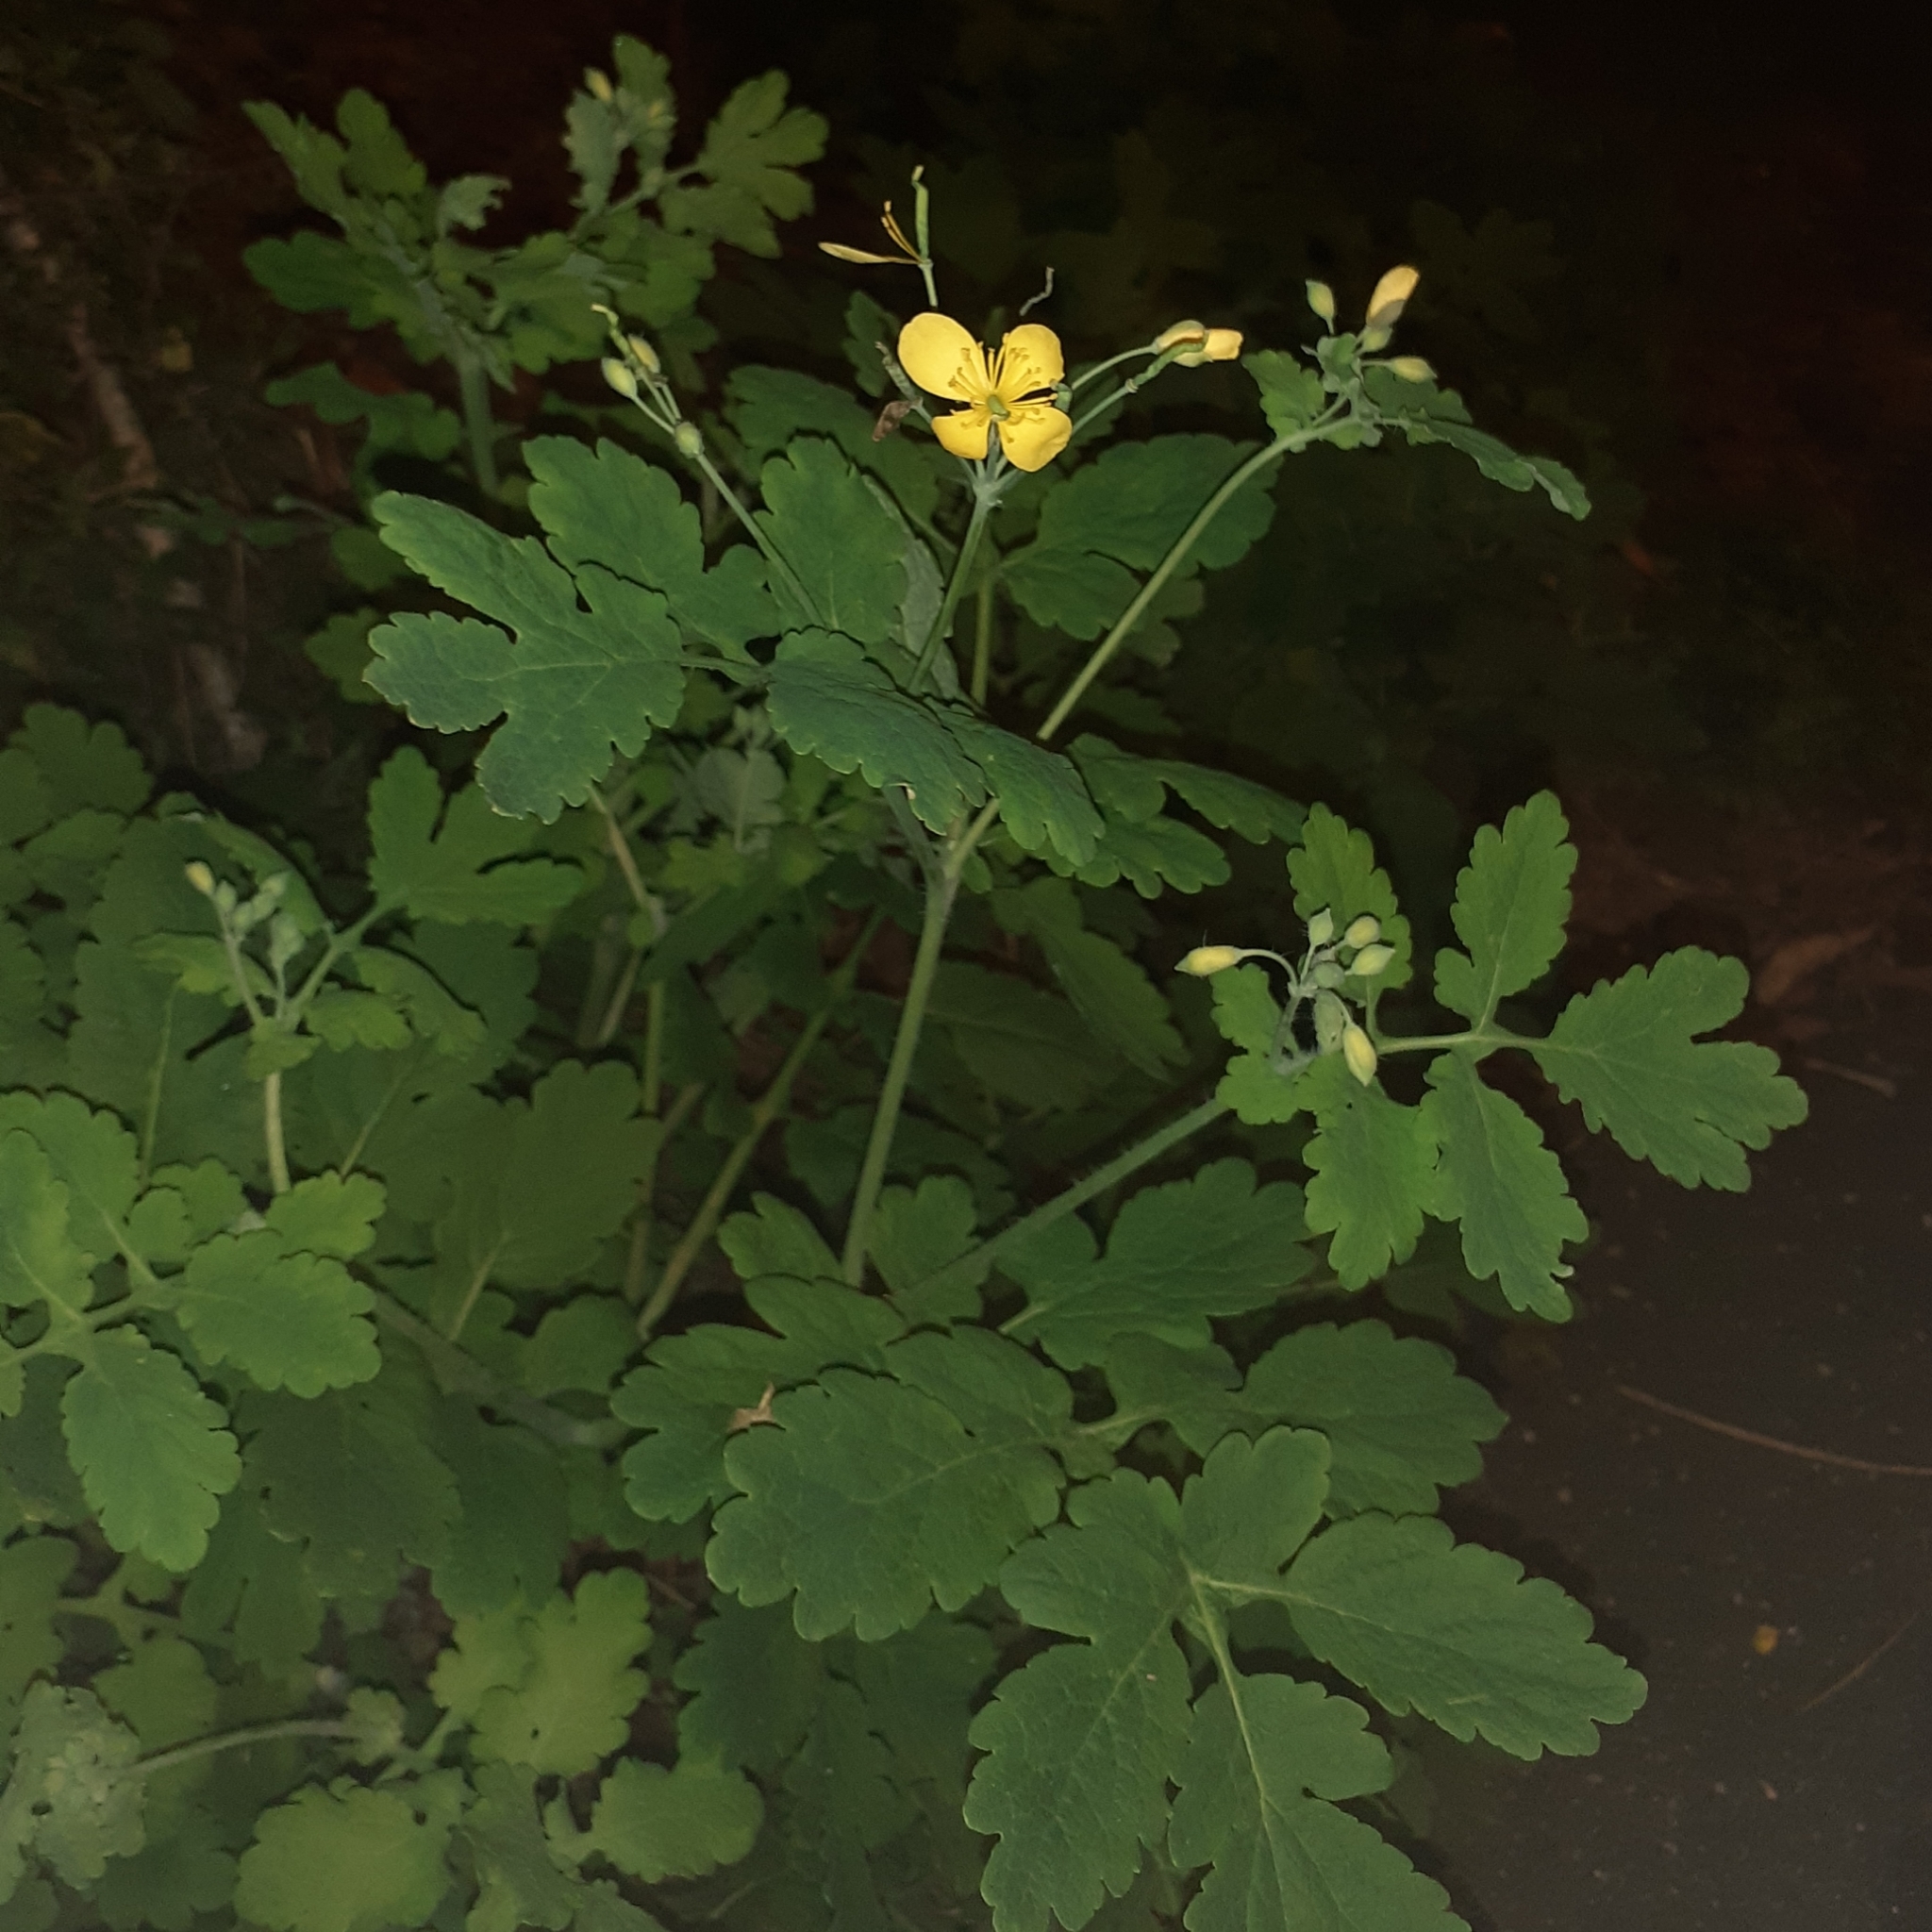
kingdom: Plantae
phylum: Tracheophyta
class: Magnoliopsida
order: Ranunculales
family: Papaveraceae
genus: Chelidonium
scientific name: Chelidonium majus
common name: Greater celandine
